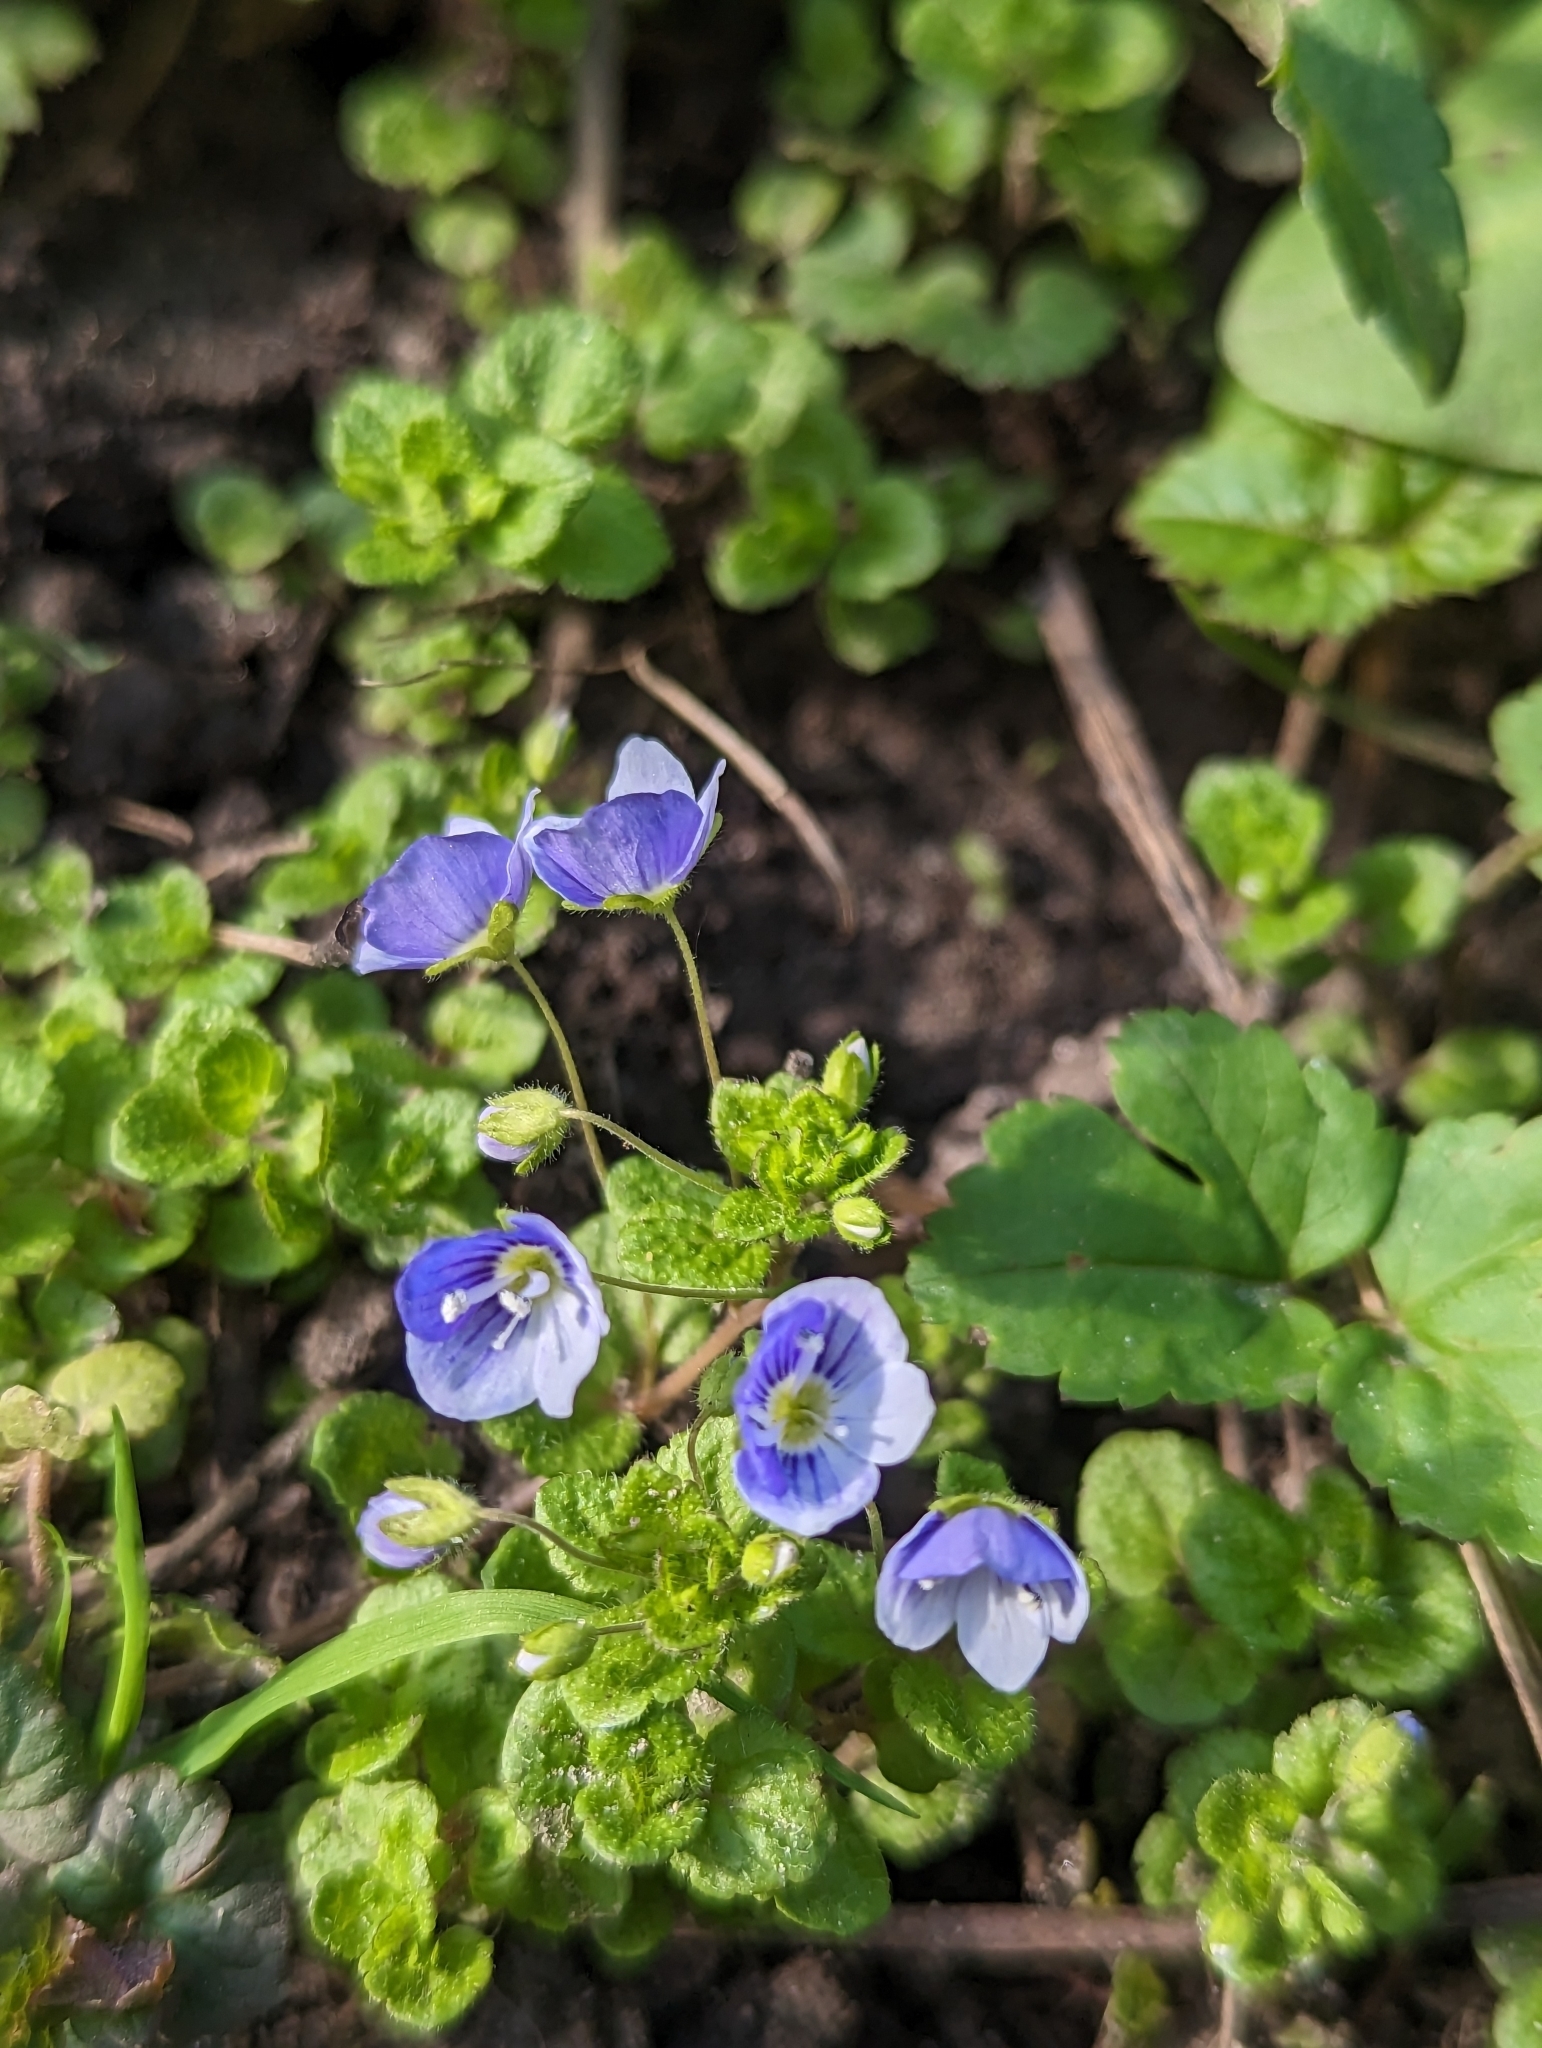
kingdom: Plantae
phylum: Tracheophyta
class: Magnoliopsida
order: Lamiales
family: Plantaginaceae
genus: Veronica
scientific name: Veronica filiformis
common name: Slender speedwell
